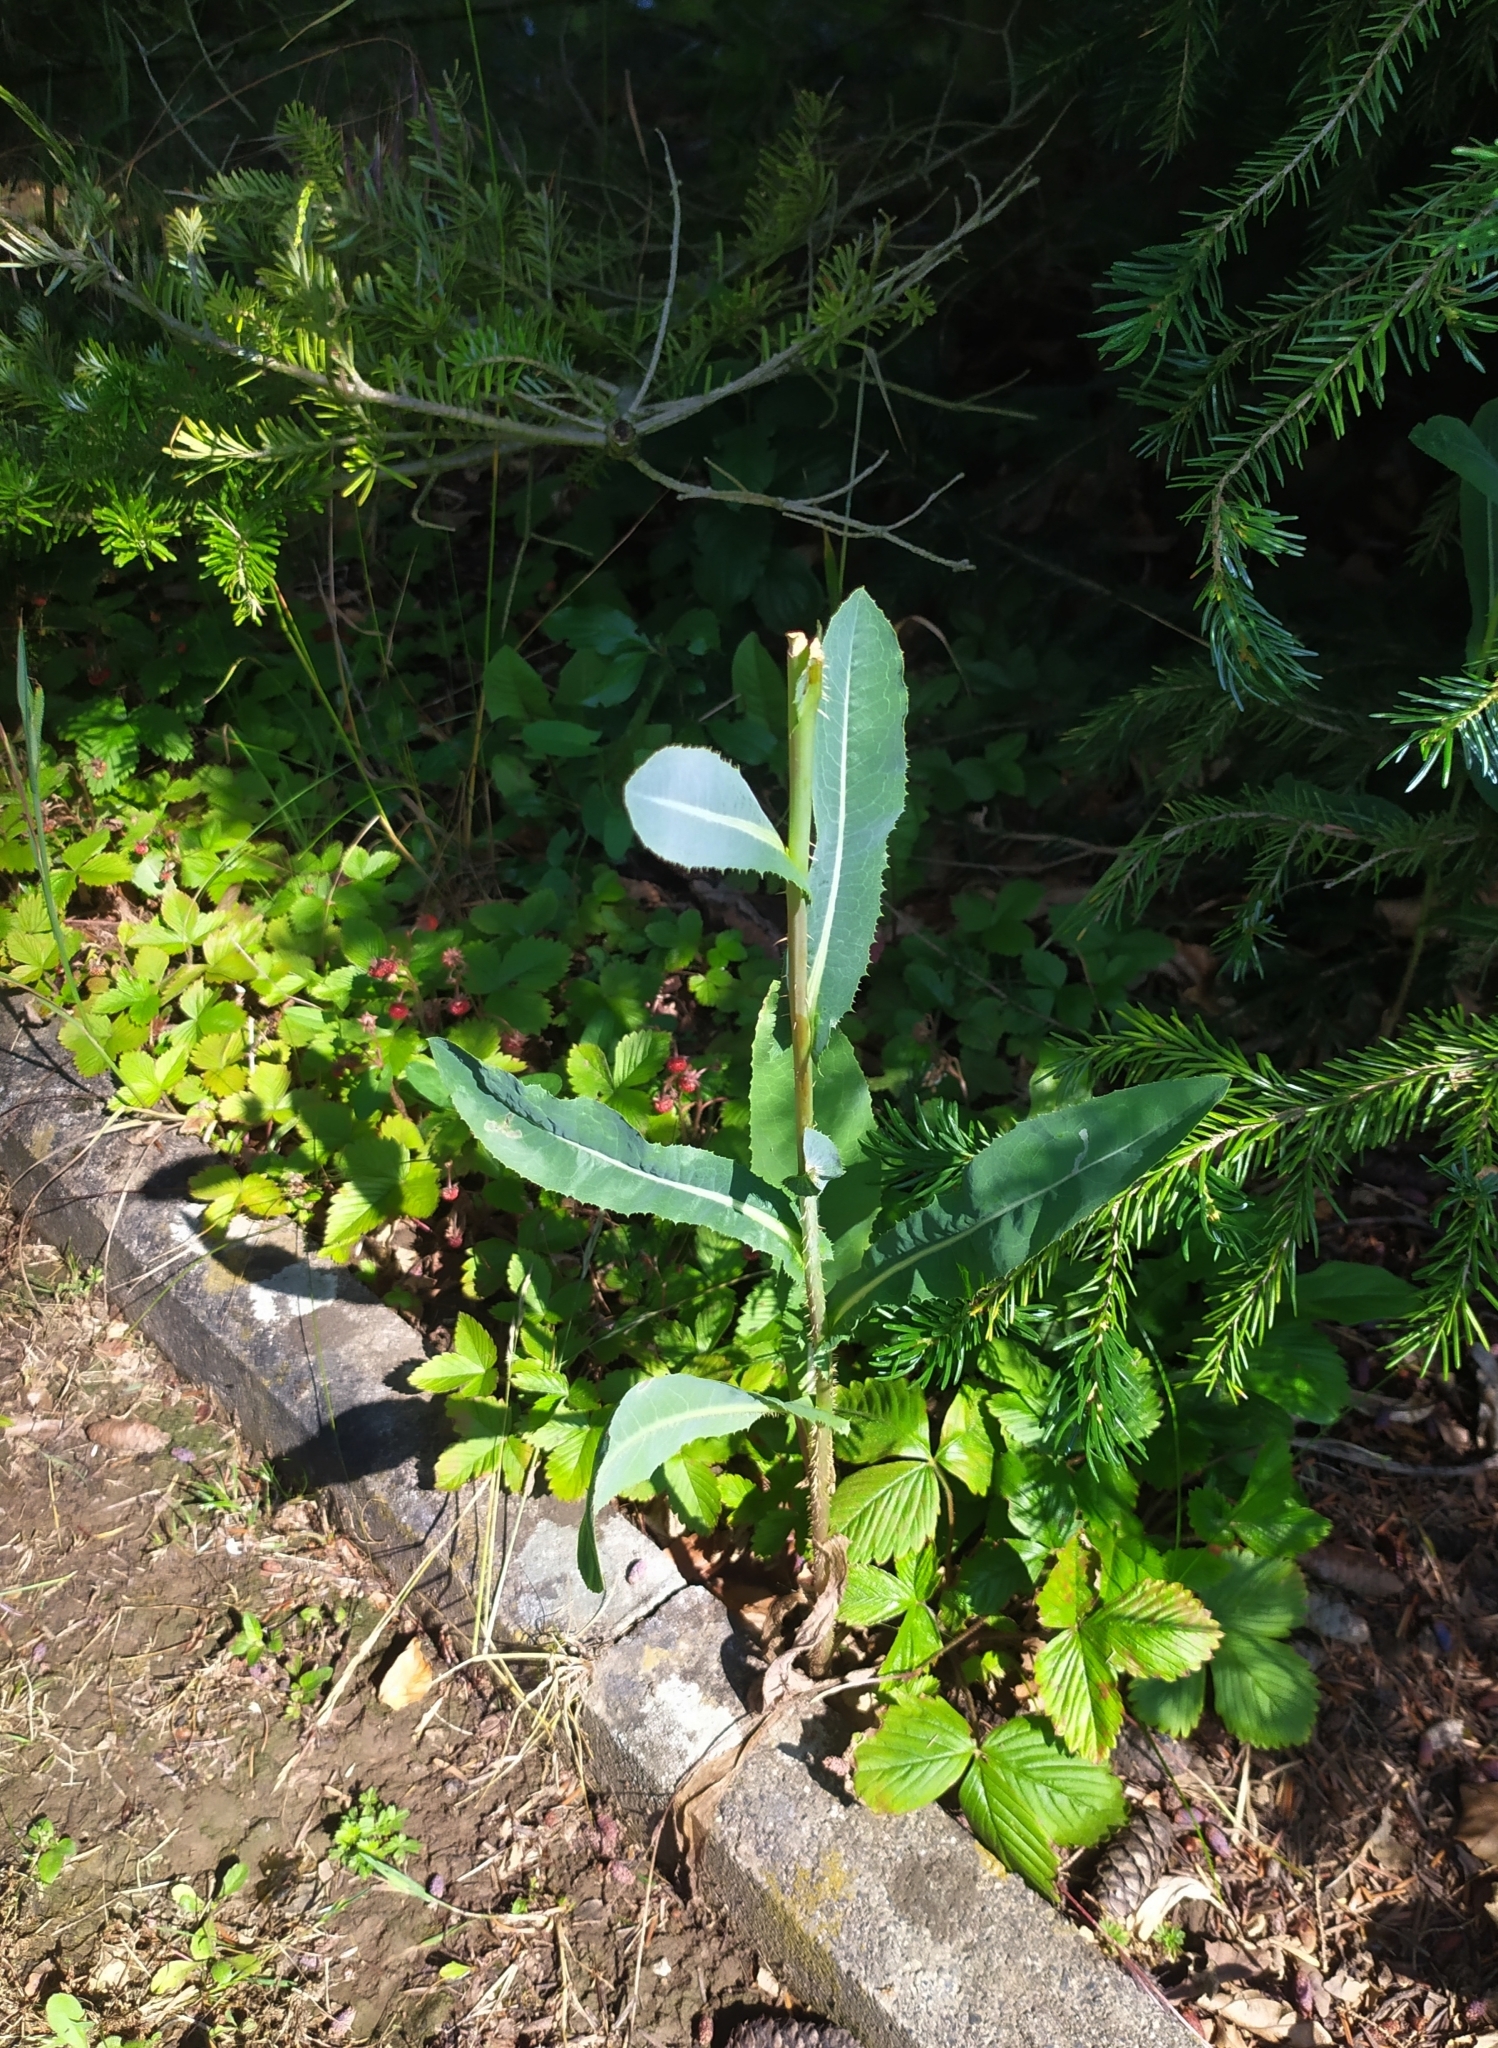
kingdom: Plantae
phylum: Tracheophyta
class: Magnoliopsida
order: Asterales
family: Asteraceae
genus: Lactuca
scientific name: Lactuca serriola
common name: Prickly lettuce
